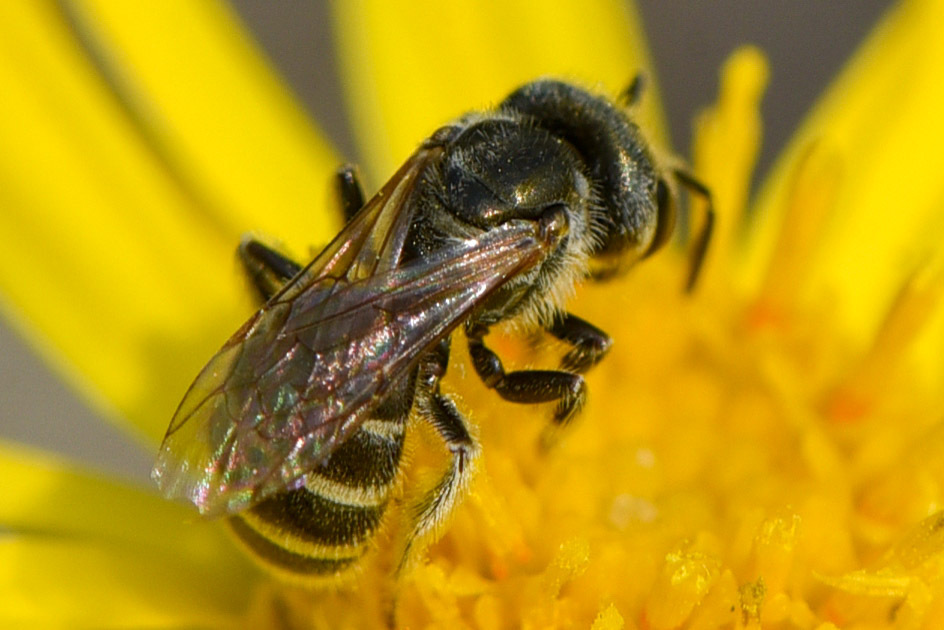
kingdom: Animalia
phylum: Arthropoda
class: Insecta
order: Hymenoptera
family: Halictidae
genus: Halictus
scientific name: Halictus tripartitus
